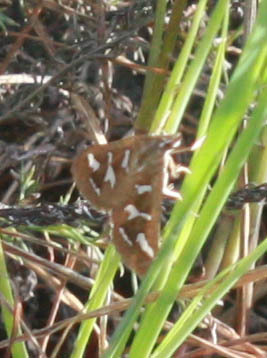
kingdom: Animalia
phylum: Arthropoda
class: Insecta
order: Lepidoptera
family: Crambidae
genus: Diastictis
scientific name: Diastictis fracturalis
